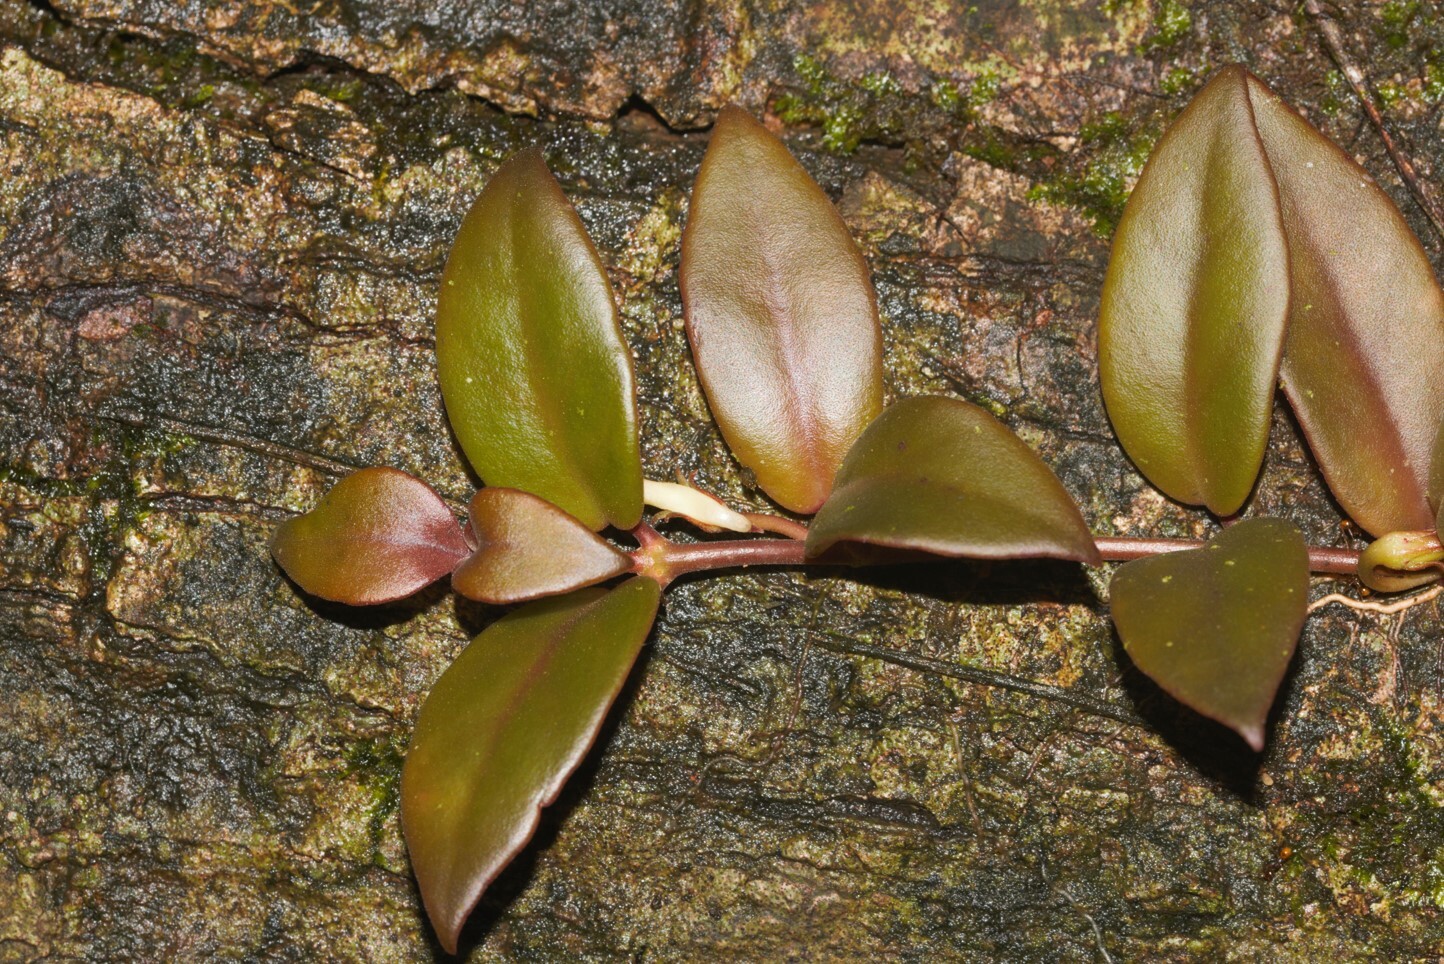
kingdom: Plantae
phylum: Tracheophyta
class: Magnoliopsida
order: Lamiales
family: Gesneriaceae
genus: Codonanthopsis
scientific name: Codonanthopsis crassifolia
